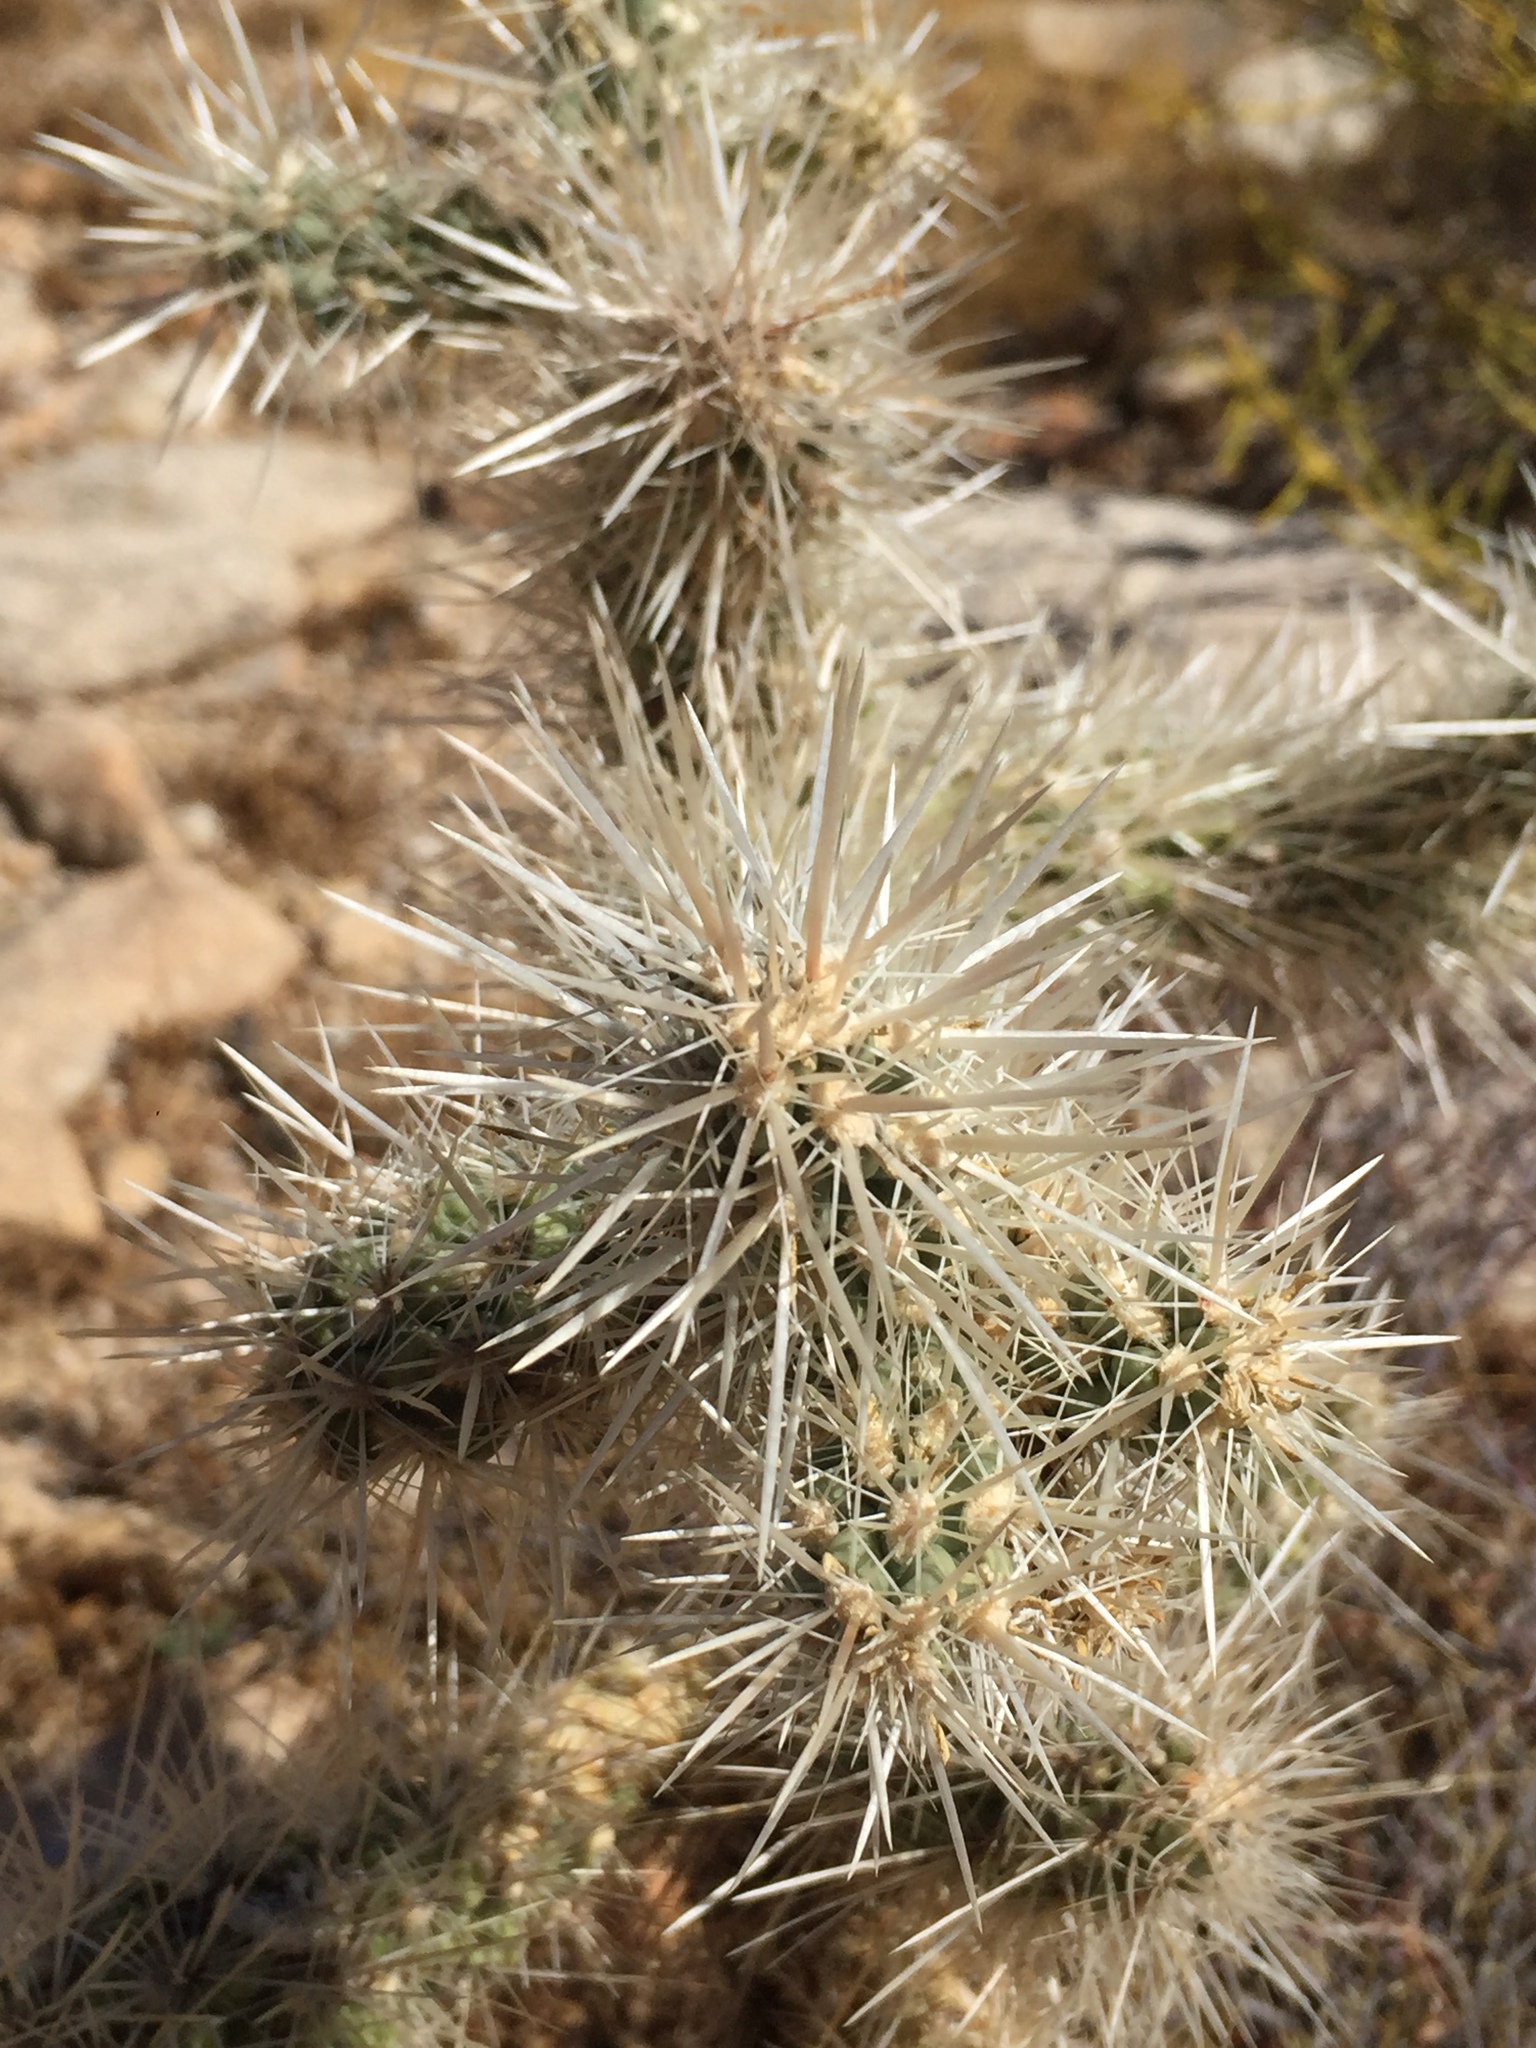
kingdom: Plantae
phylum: Tracheophyta
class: Magnoliopsida
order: Caryophyllales
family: Cactaceae
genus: Cylindropuntia
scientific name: Cylindropuntia echinocarpa
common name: Ground cholla
